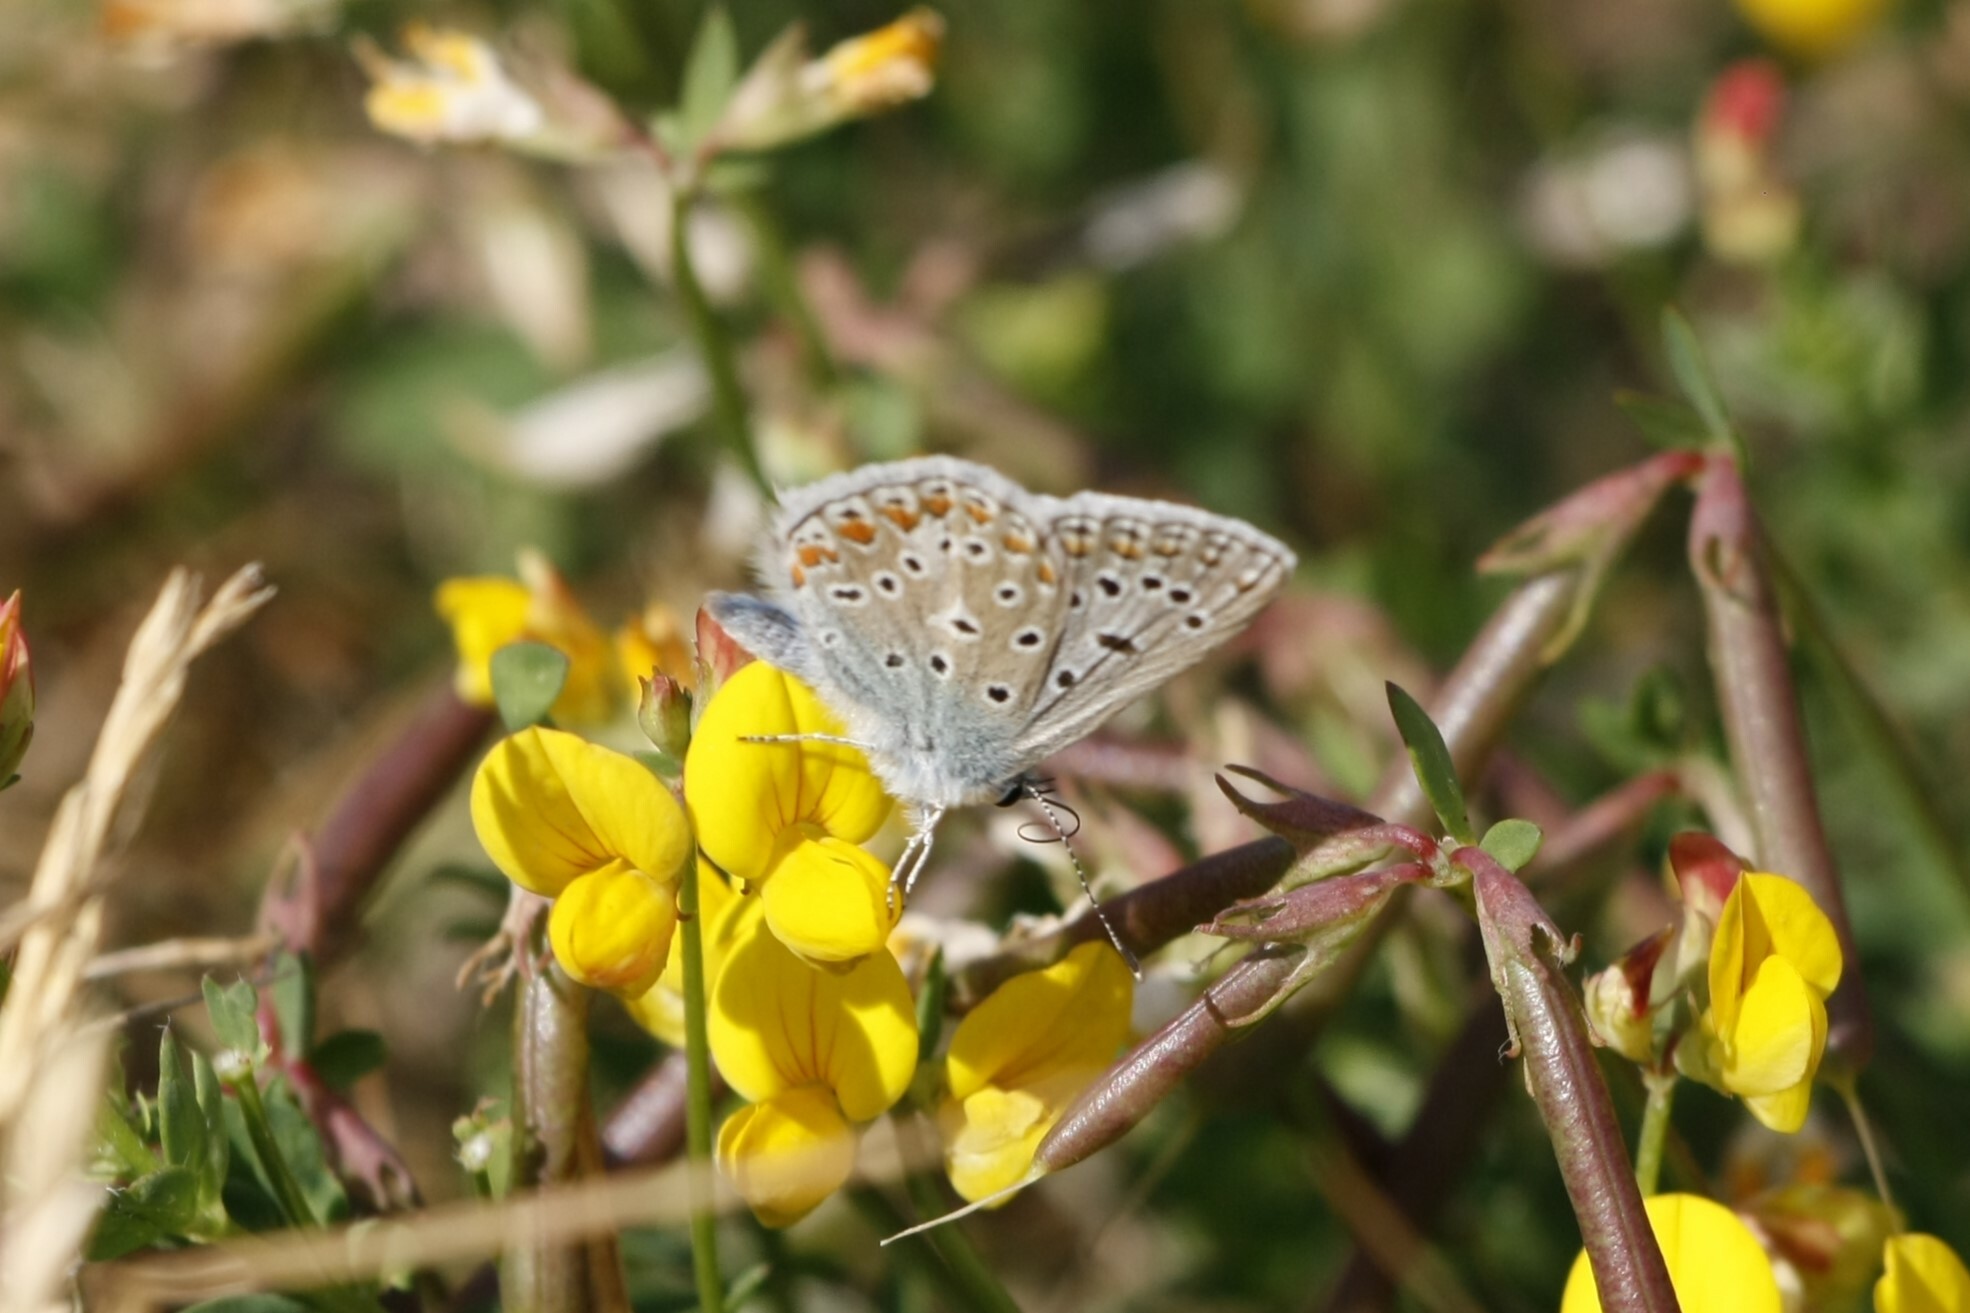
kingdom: Animalia
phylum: Arthropoda
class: Insecta
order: Lepidoptera
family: Lycaenidae
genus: Polyommatus
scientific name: Polyommatus icarus
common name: Common blue
